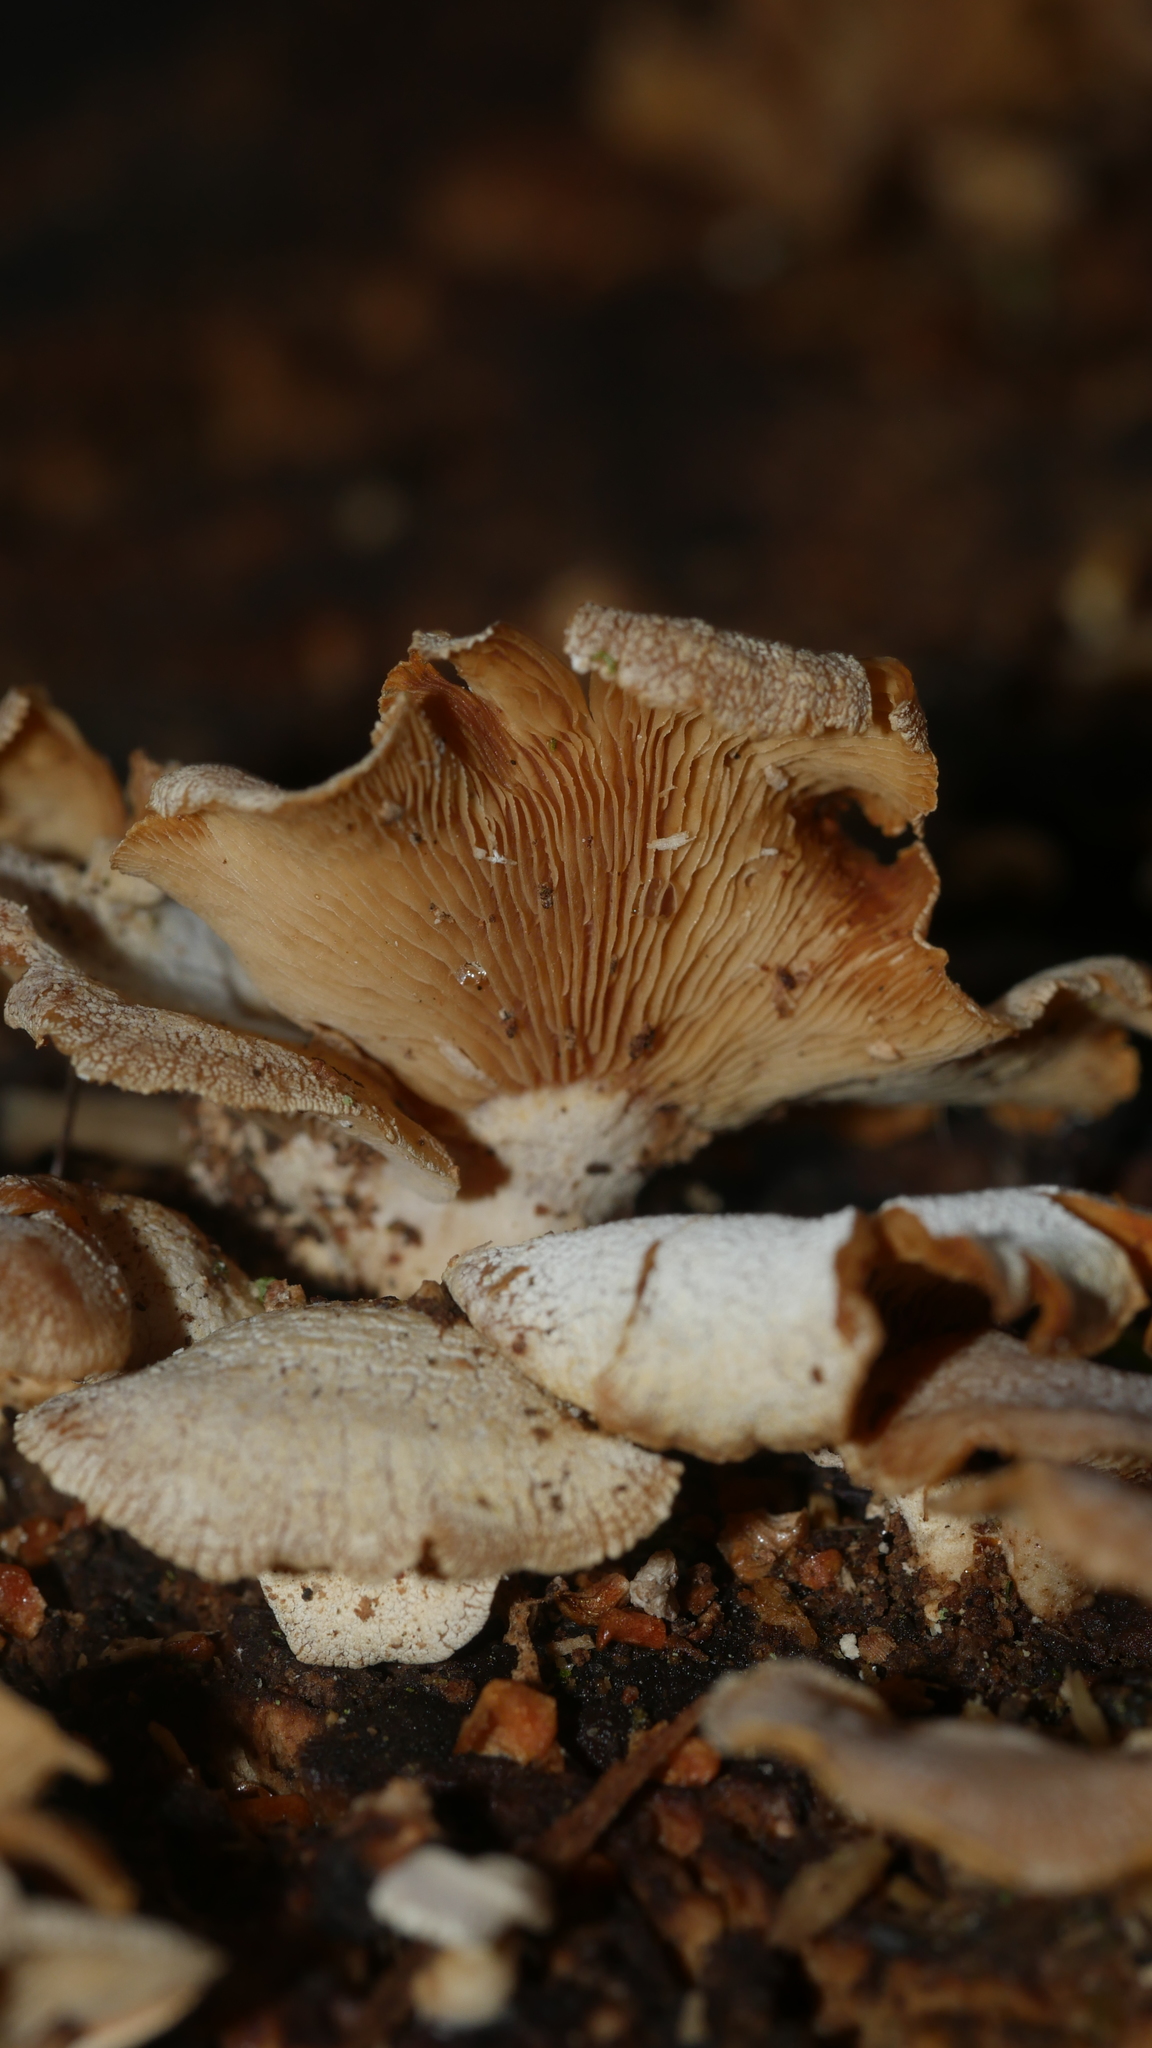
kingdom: Fungi
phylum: Basidiomycota
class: Agaricomycetes
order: Agaricales
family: Mycenaceae
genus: Panellus
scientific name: Panellus stipticus
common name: Bitter oysterling
